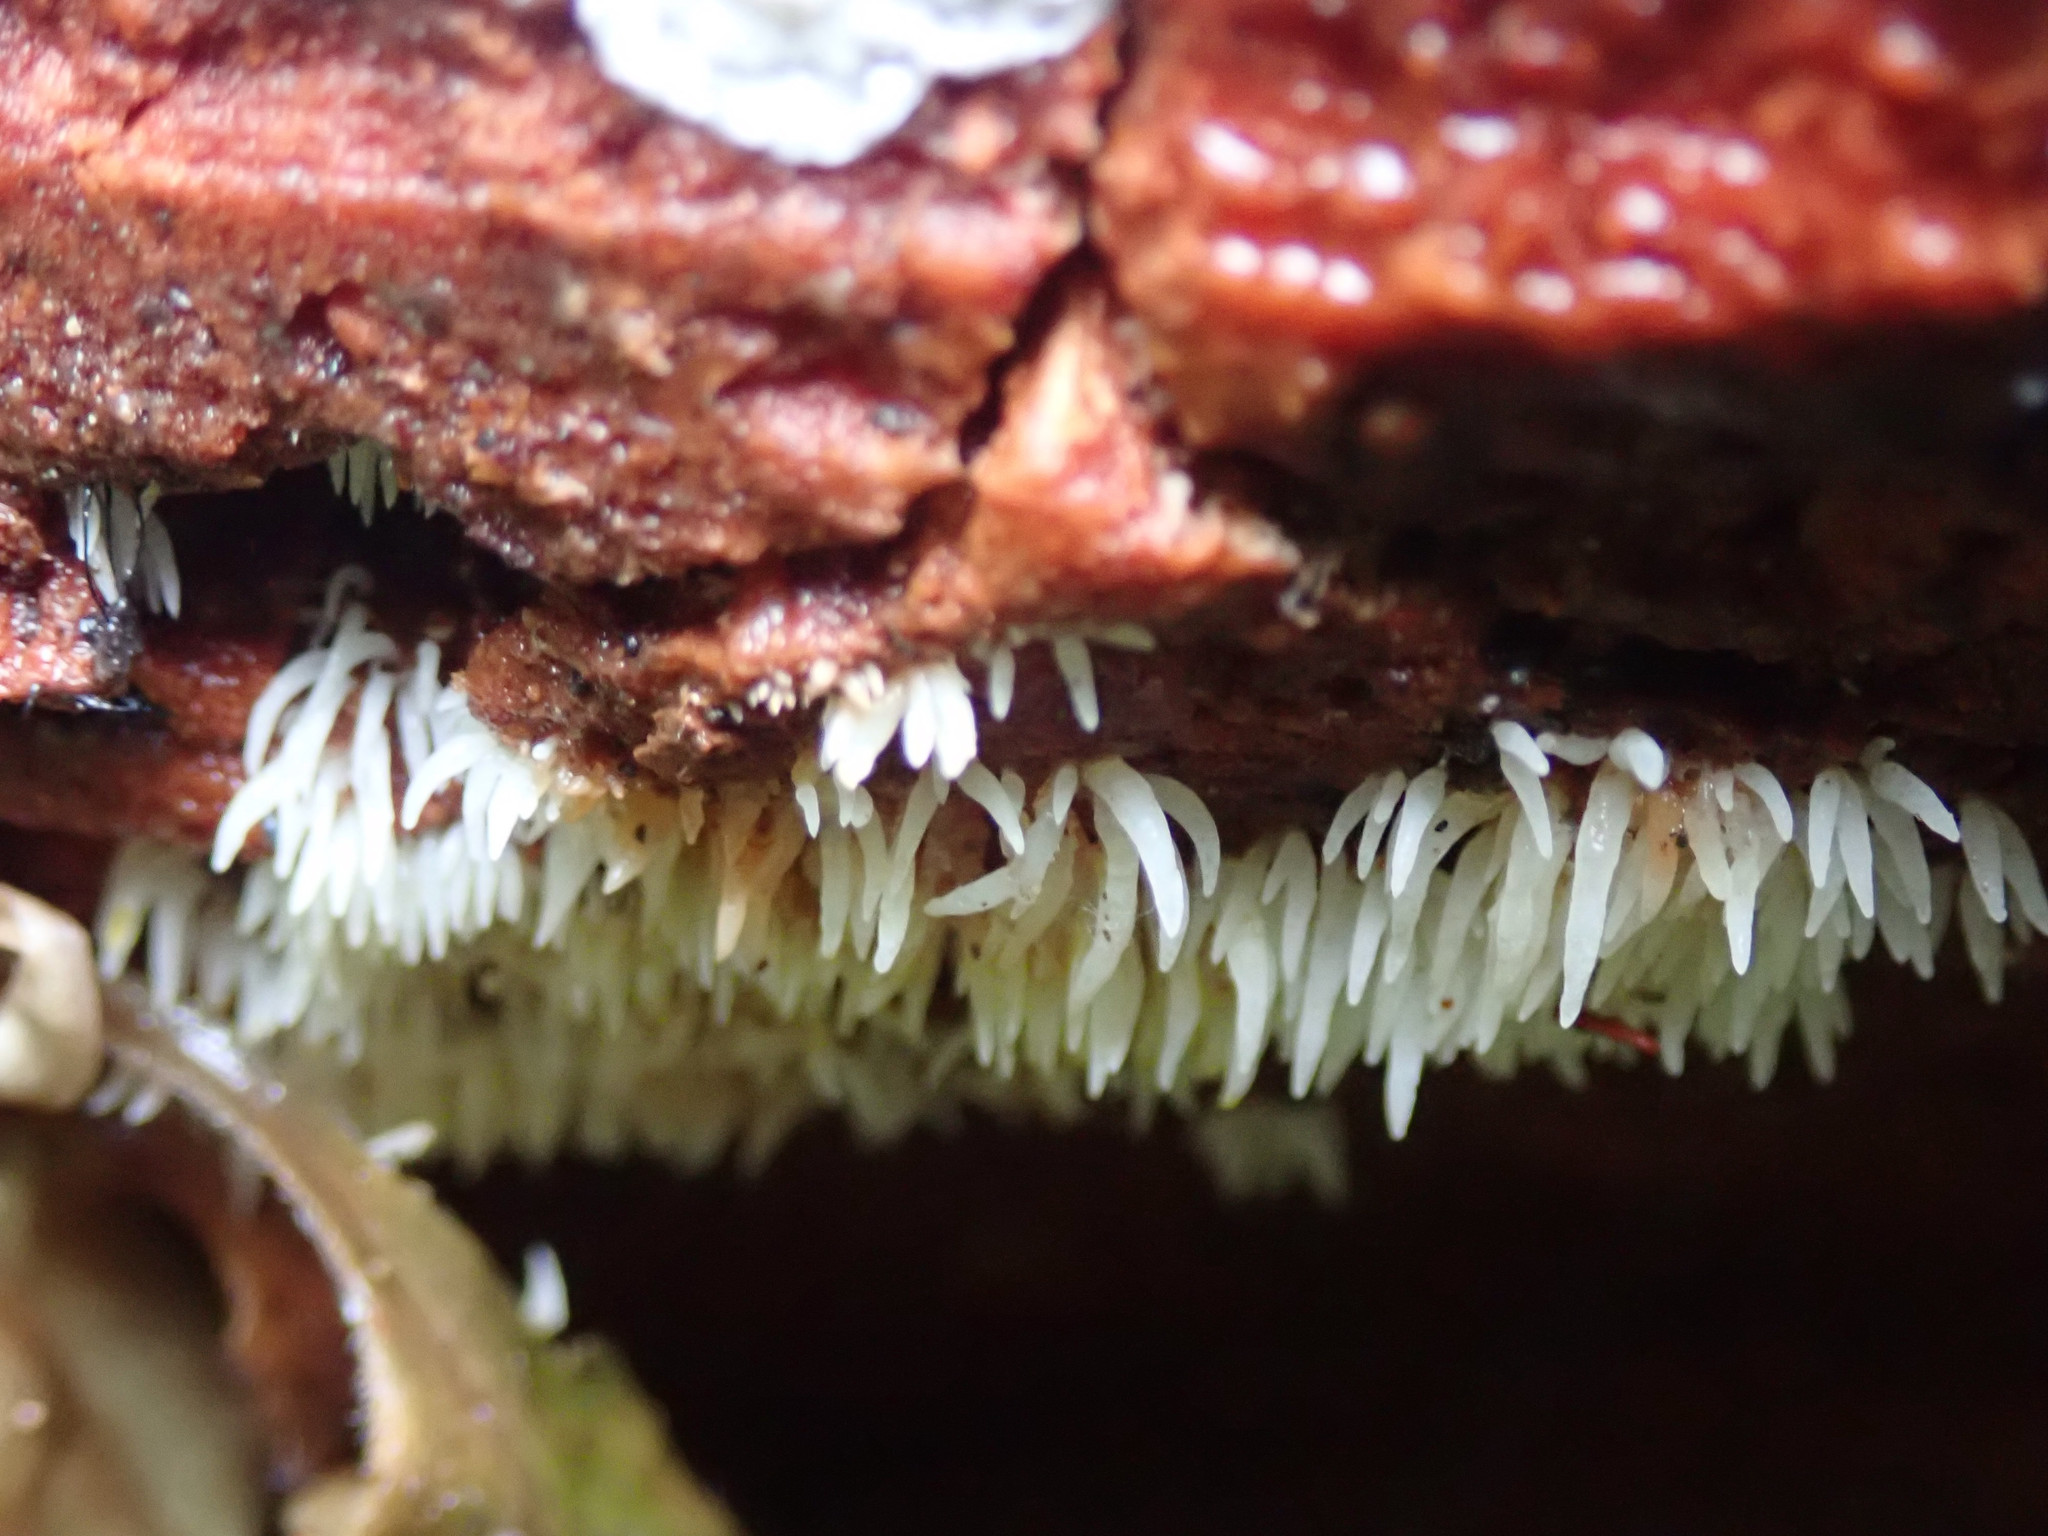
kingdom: Fungi
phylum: Basidiomycota
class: Agaricomycetes
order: Agaricales
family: Clavariaceae
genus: Mucronella
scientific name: Mucronella calva
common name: Swarming spine
